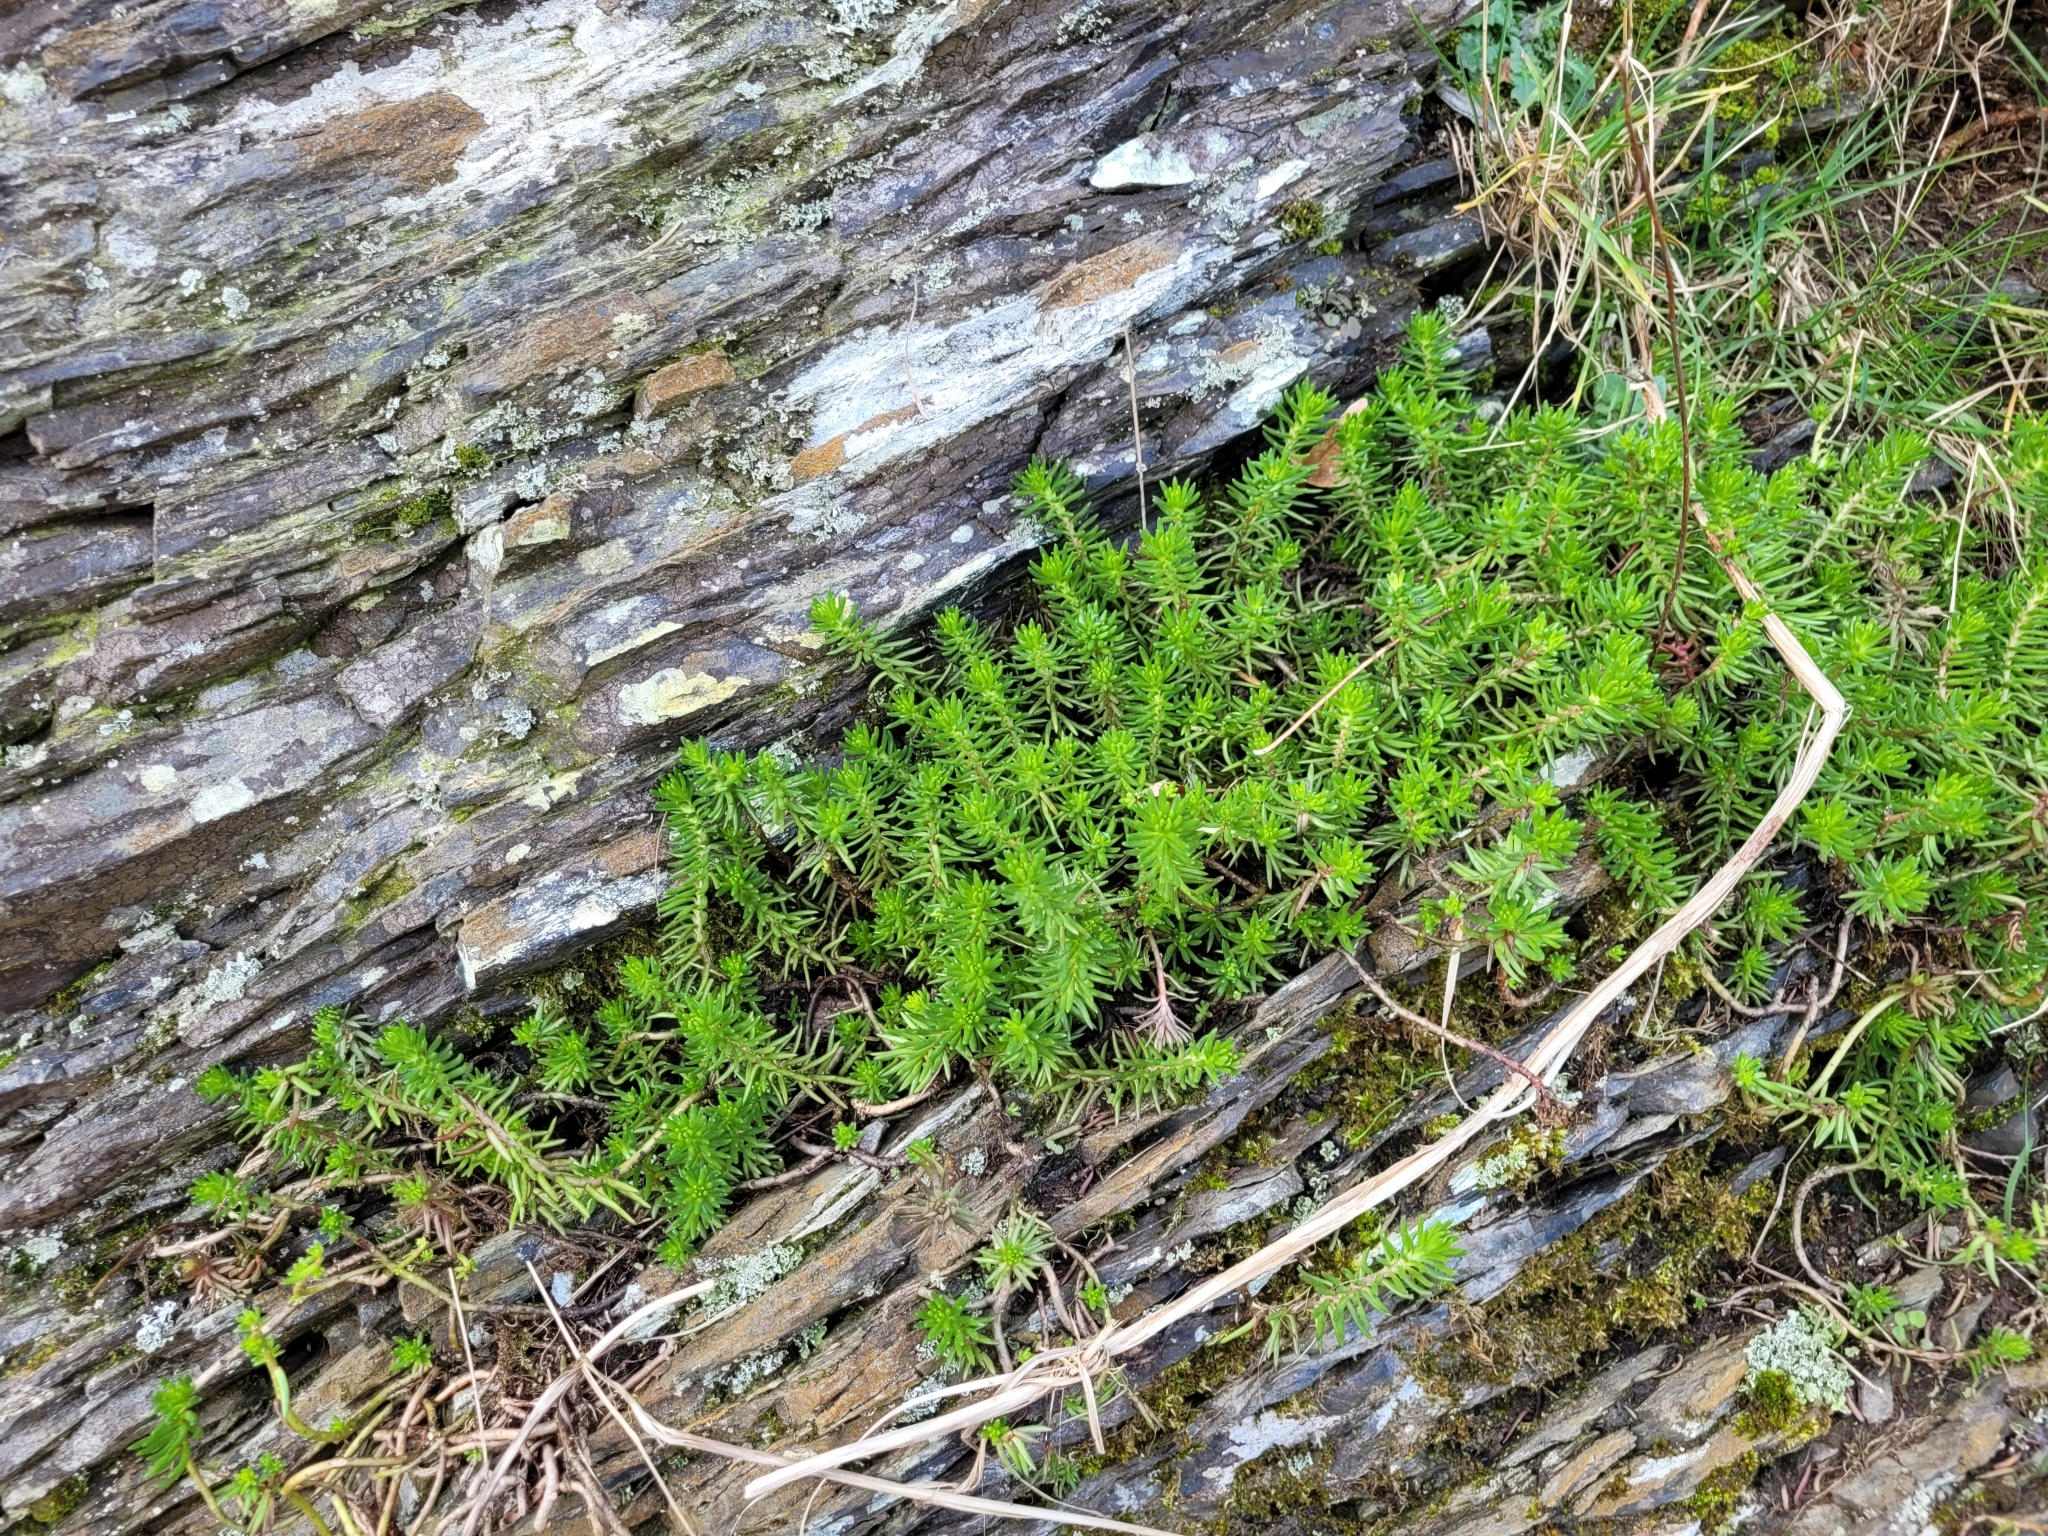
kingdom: Plantae
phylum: Tracheophyta
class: Magnoliopsida
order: Saxifragales
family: Crassulaceae
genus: Petrosedum
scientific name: Petrosedum rupestre
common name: Jenny's stonecrop
